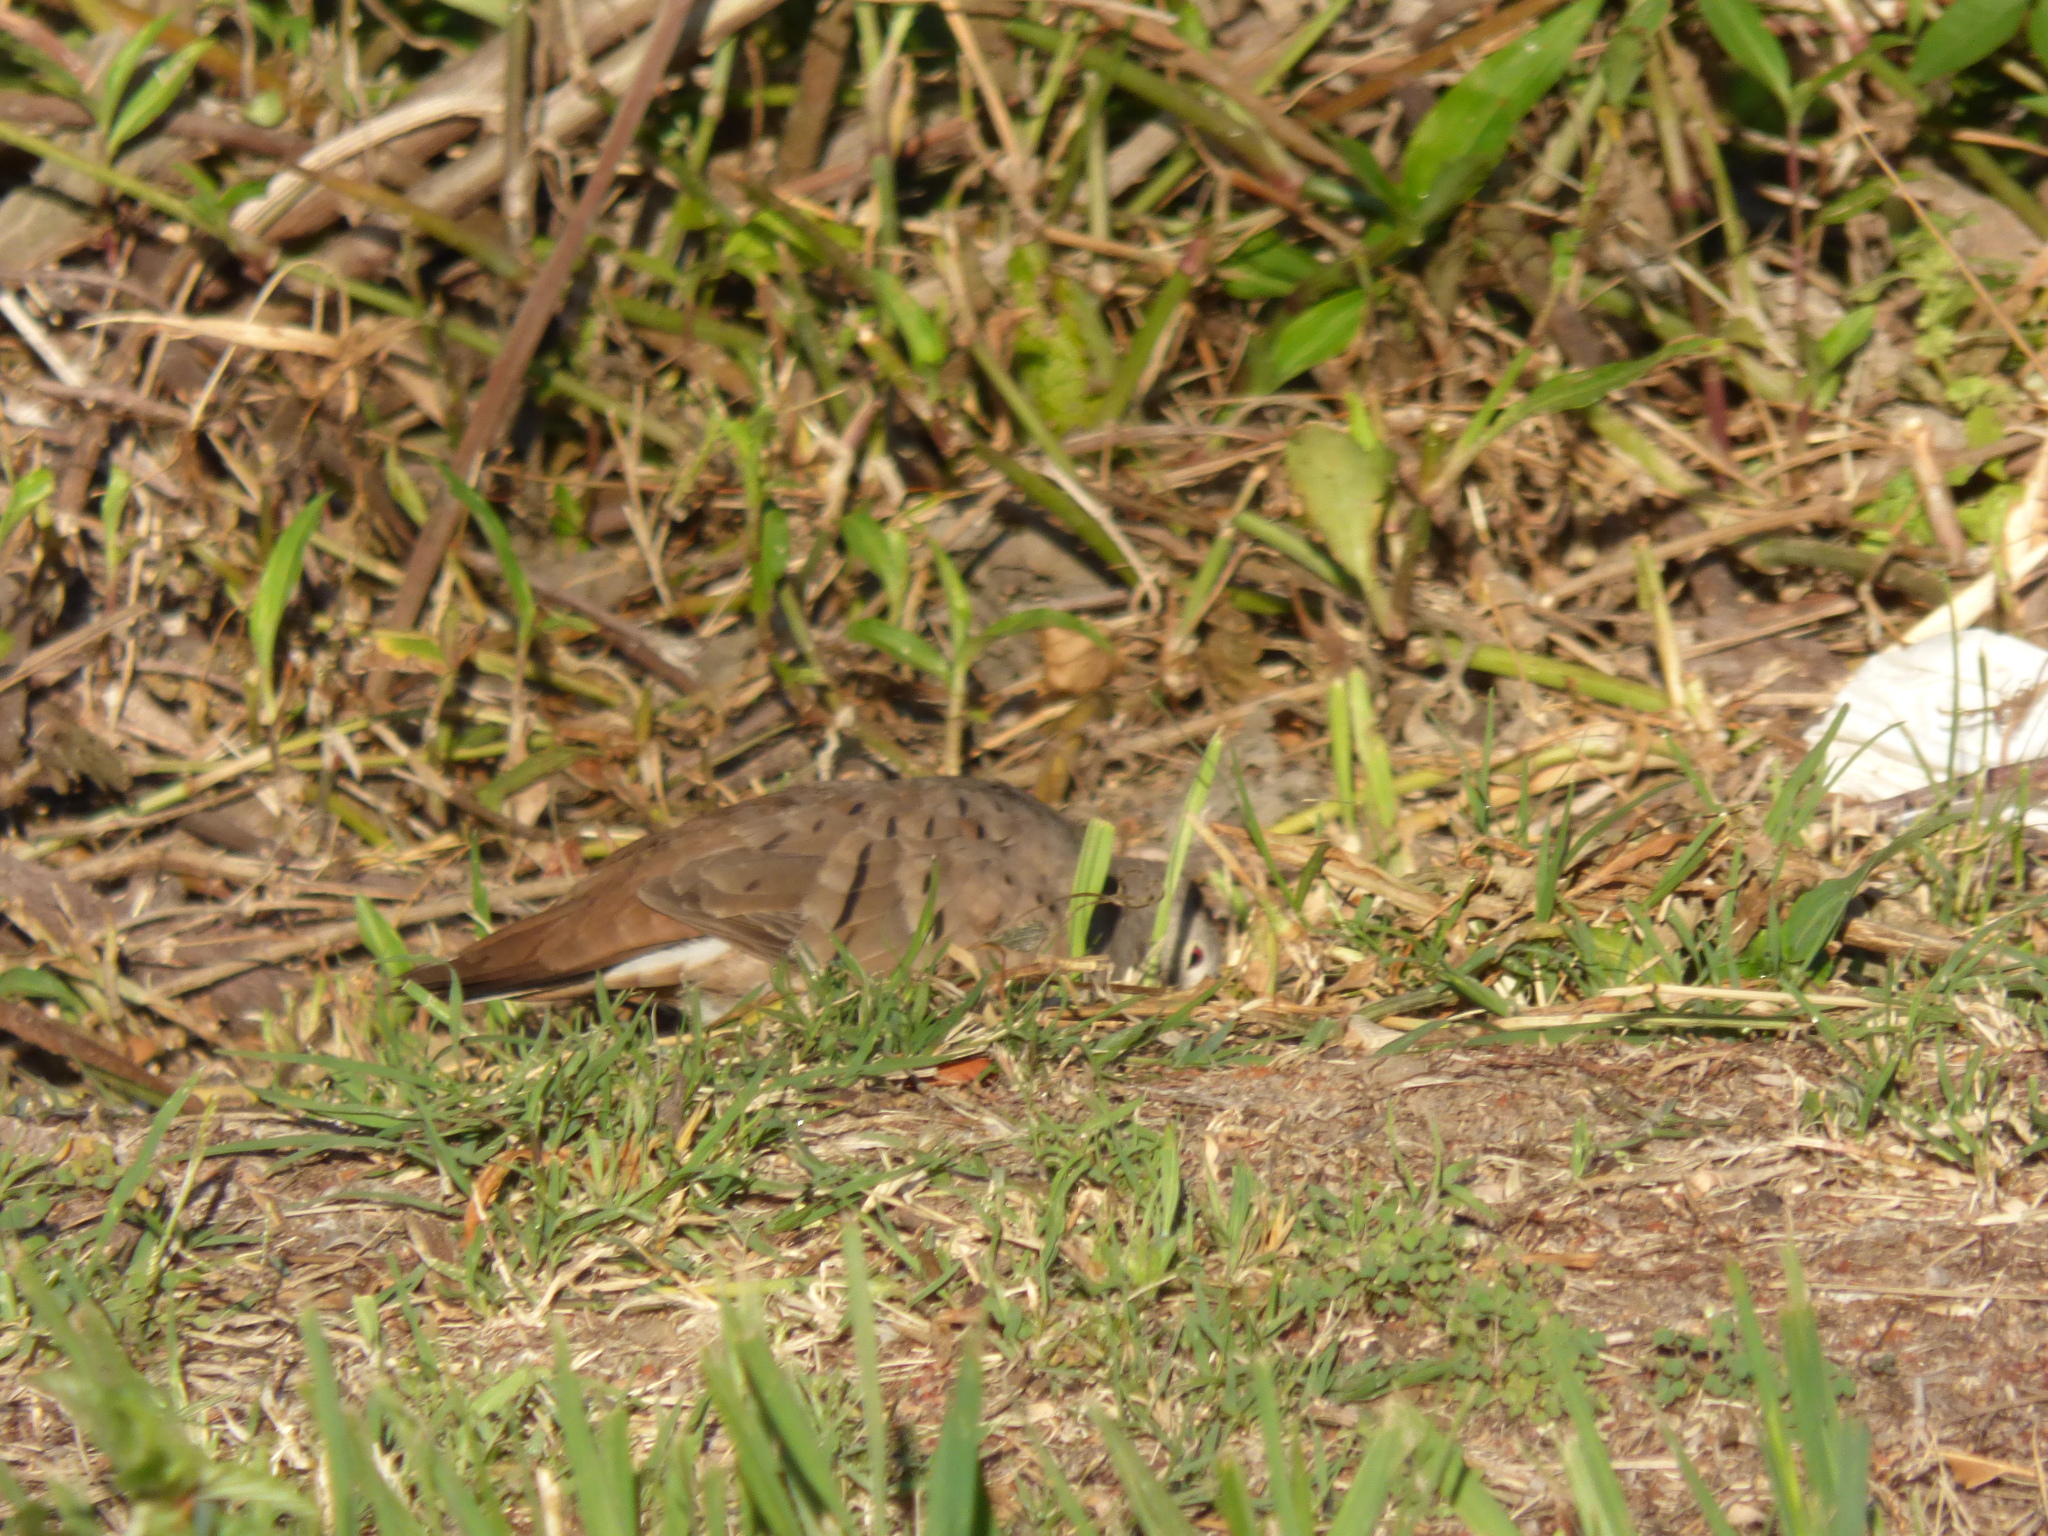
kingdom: Animalia
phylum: Chordata
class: Aves
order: Columbiformes
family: Columbidae
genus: Columbina
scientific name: Columbina talpacoti
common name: Ruddy ground dove
